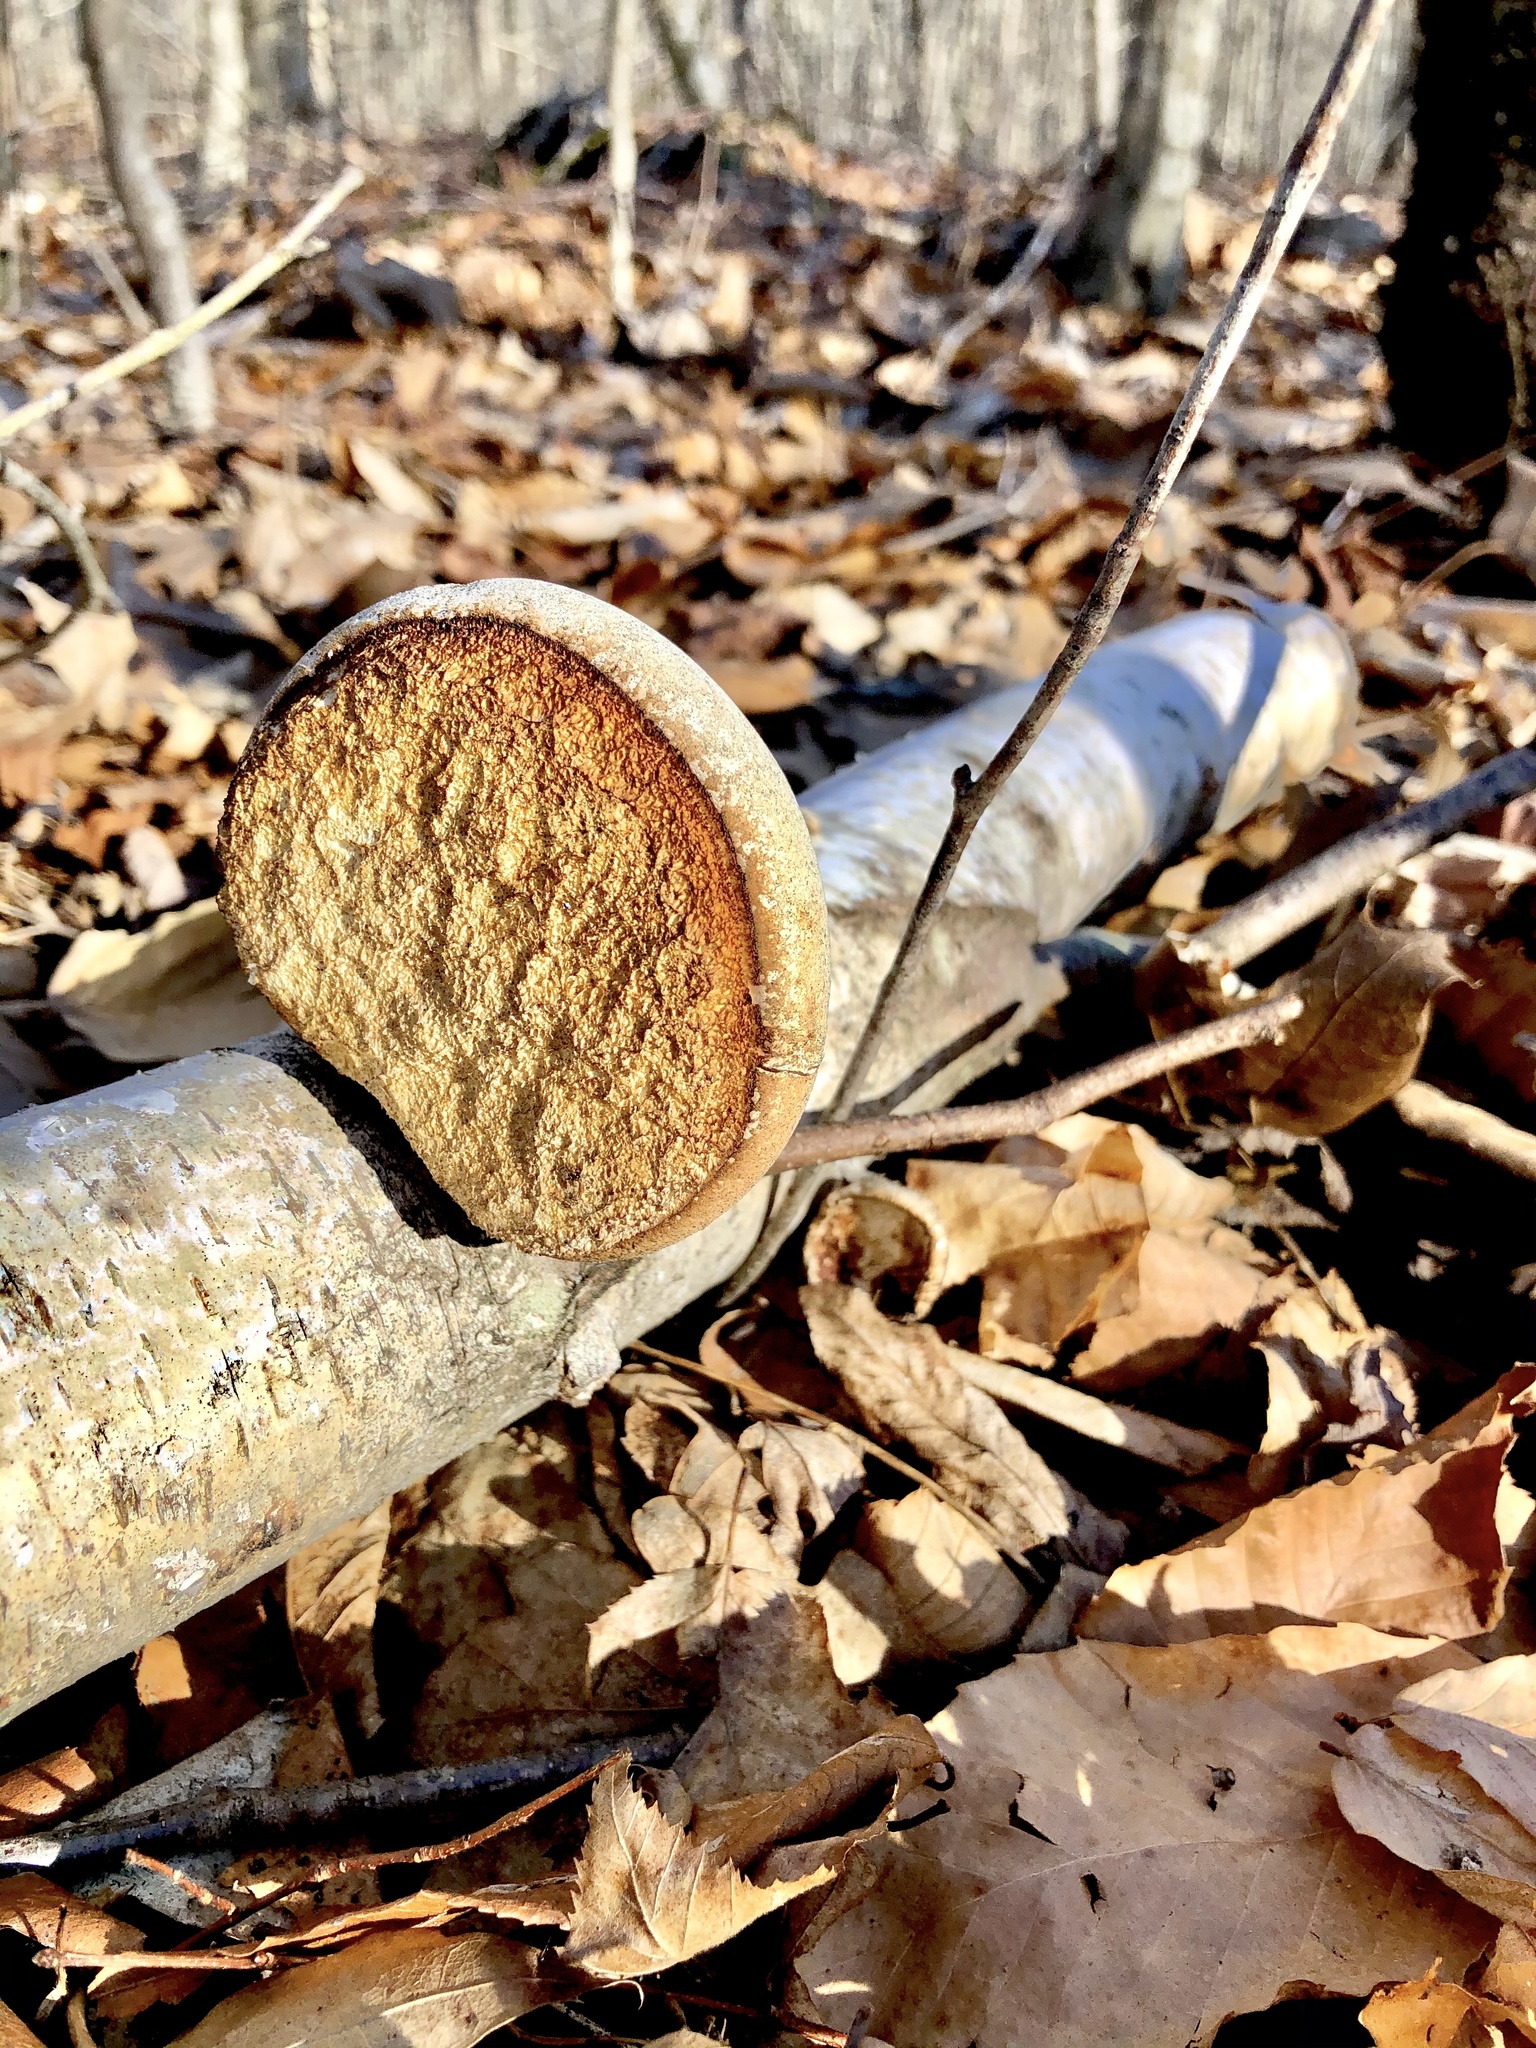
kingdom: Fungi
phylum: Basidiomycota
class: Agaricomycetes
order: Polyporales
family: Fomitopsidaceae
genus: Fomitopsis
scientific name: Fomitopsis betulina
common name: Birch polypore
